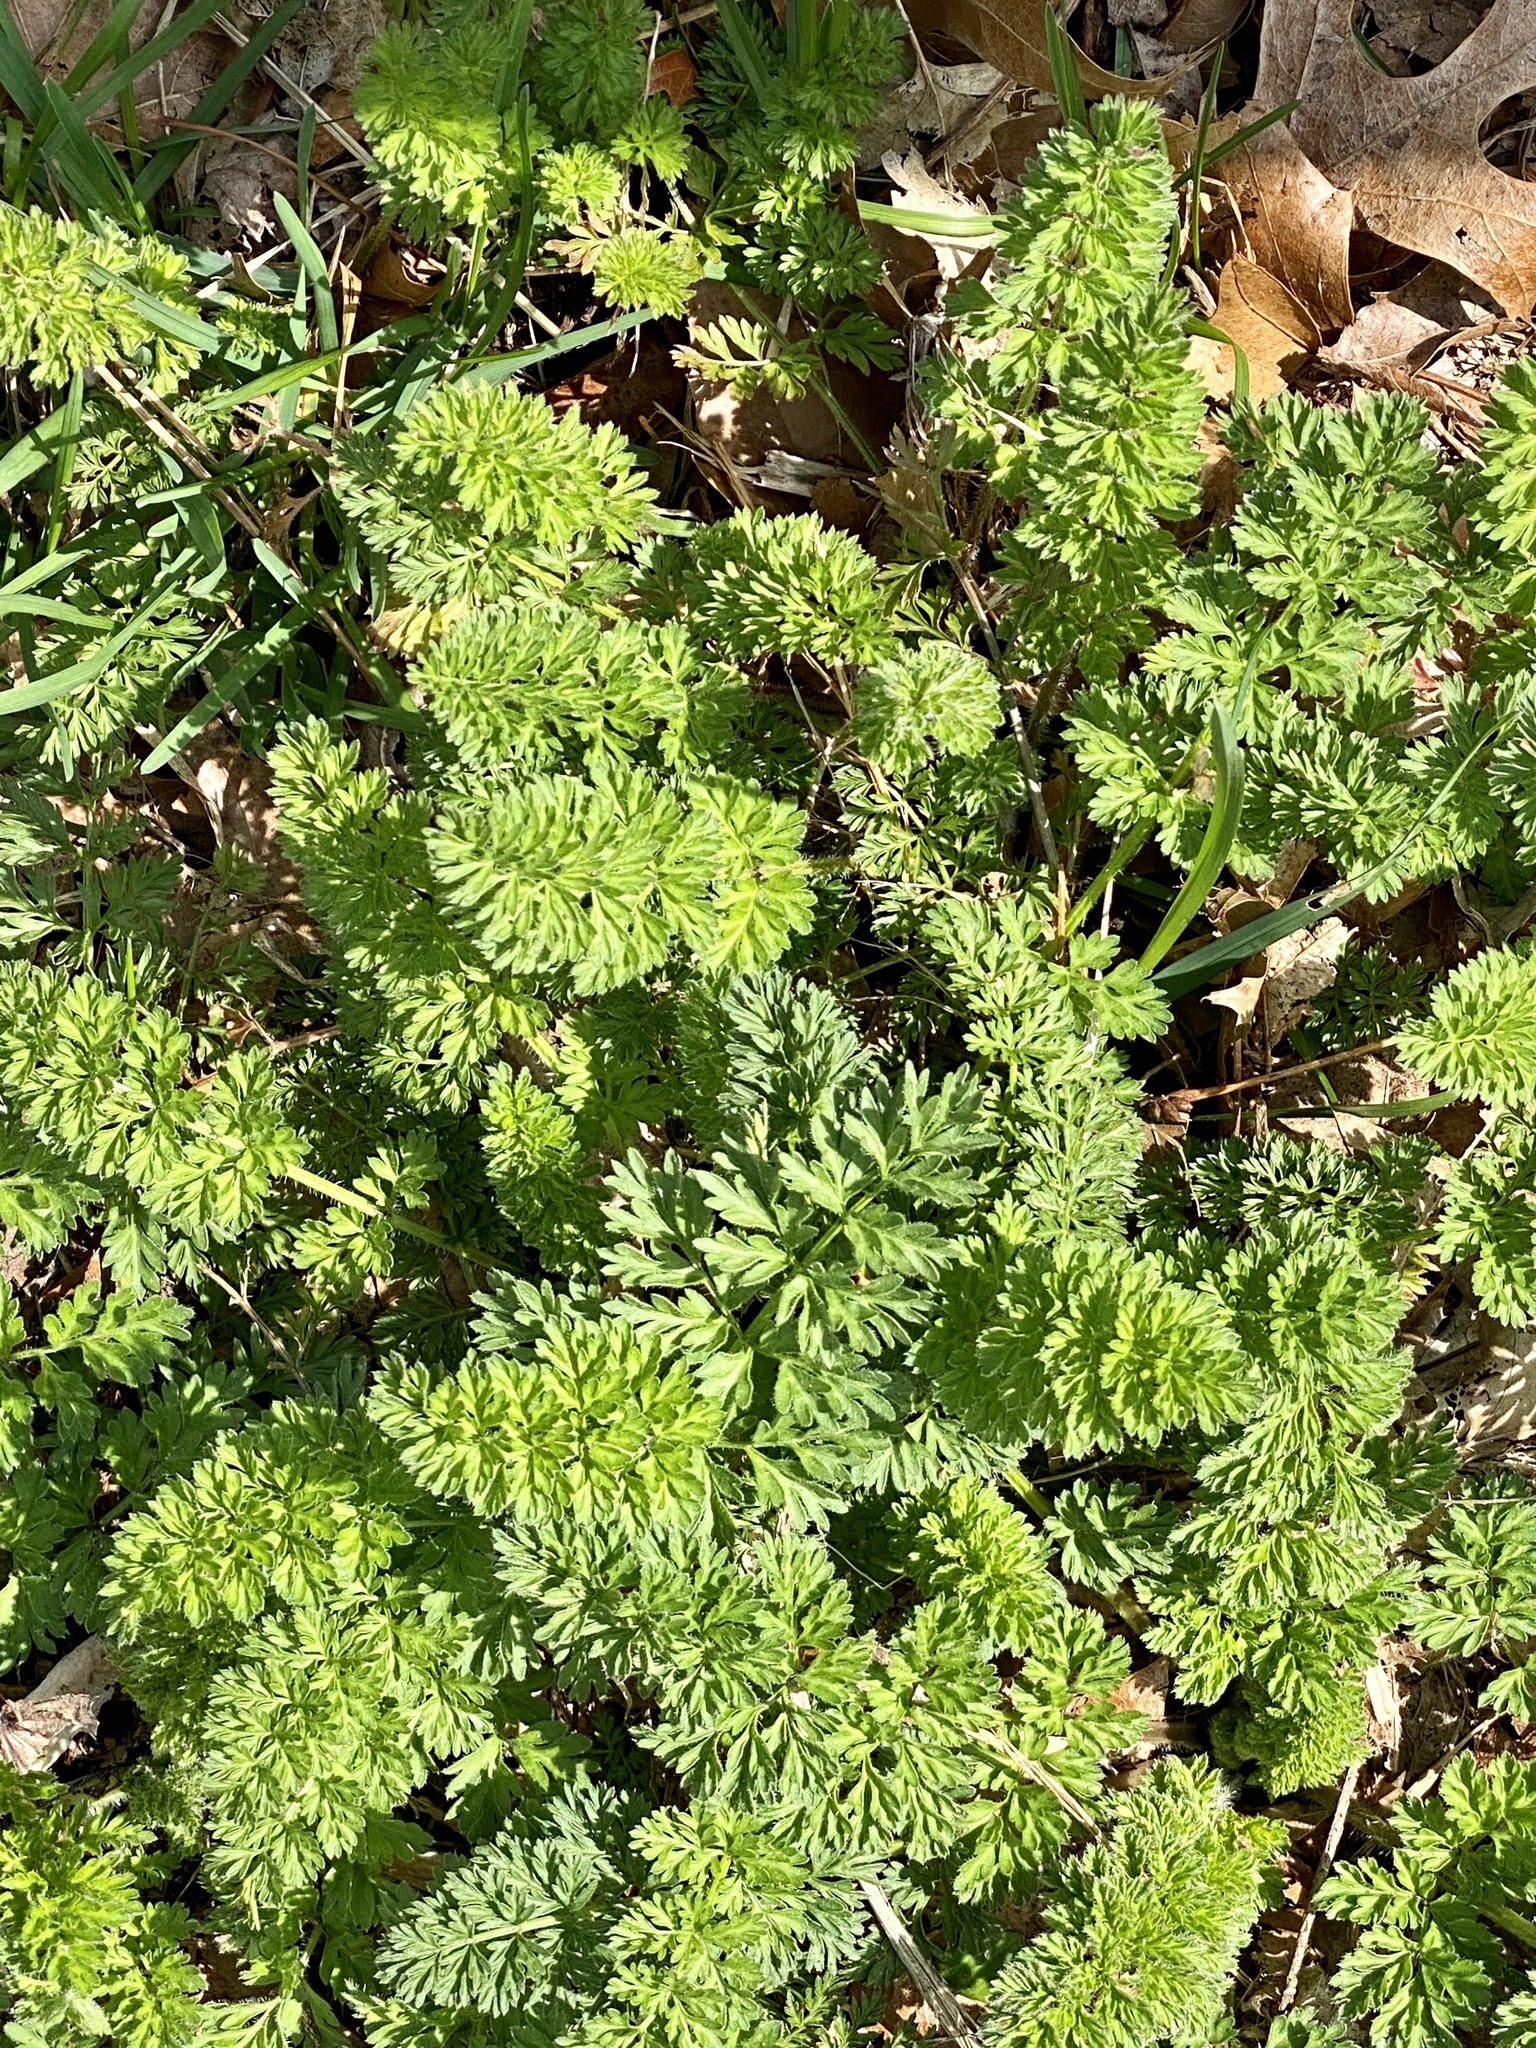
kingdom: Plantae
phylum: Tracheophyta
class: Magnoliopsida
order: Apiales
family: Apiaceae
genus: Daucus
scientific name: Daucus carota
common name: Wild carrot
